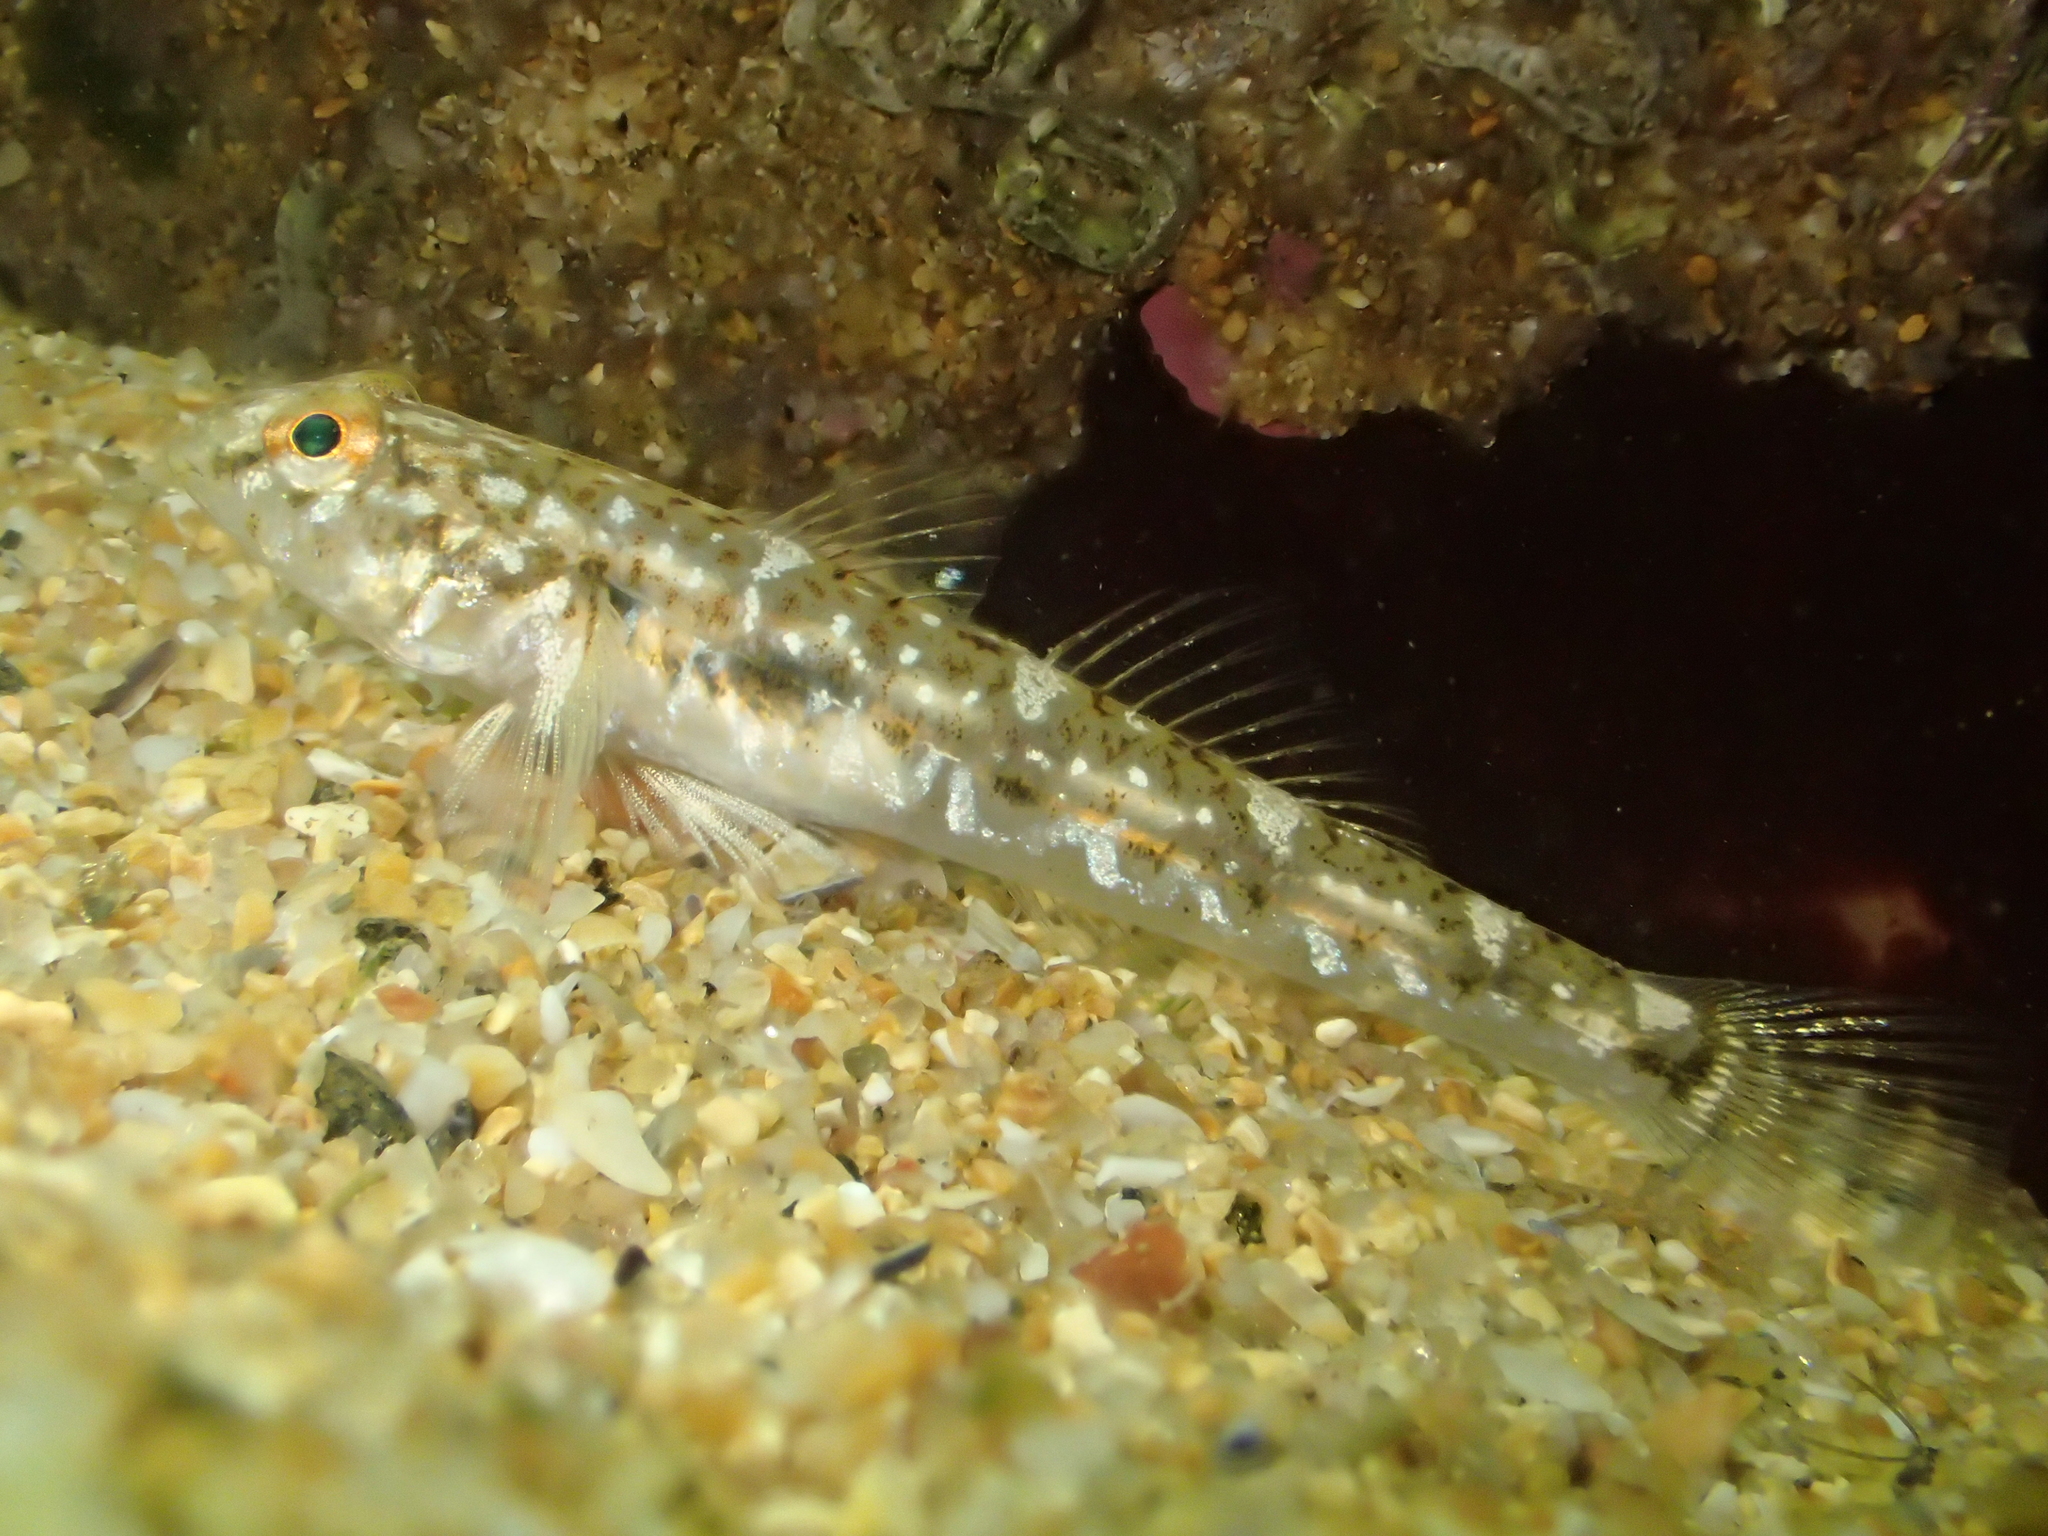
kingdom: Animalia
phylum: Chordata
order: Perciformes
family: Gobiidae
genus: Pomatoschistus
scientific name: Pomatoschistus microps
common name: Common goby
